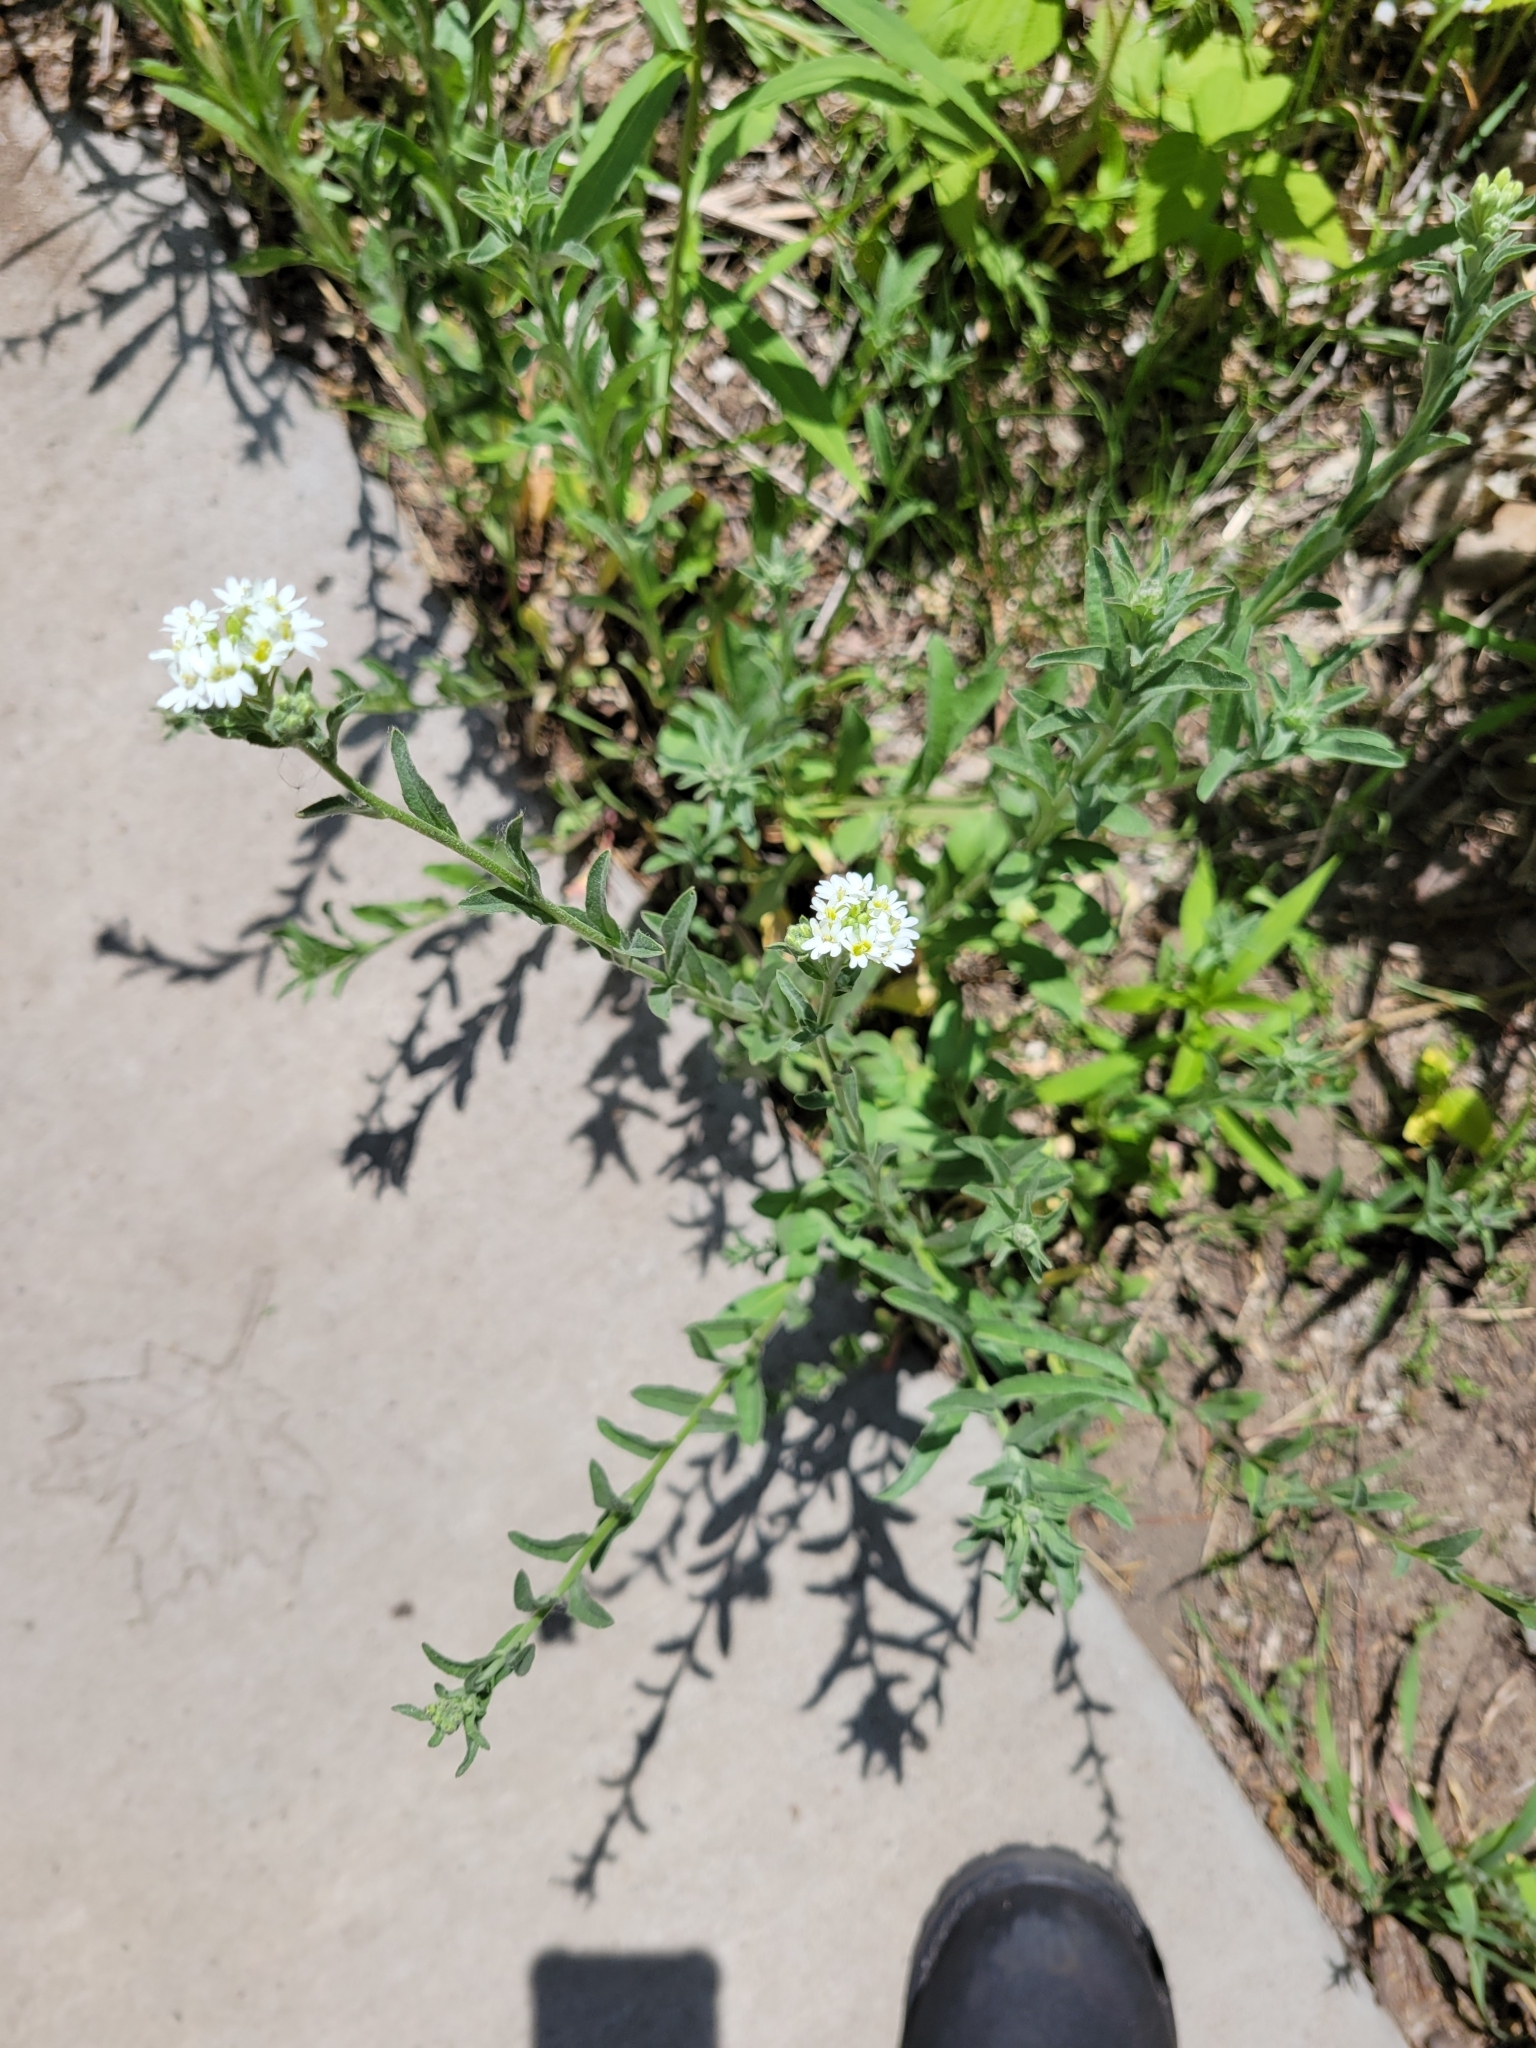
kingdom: Plantae
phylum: Tracheophyta
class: Magnoliopsida
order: Brassicales
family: Brassicaceae
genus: Berteroa
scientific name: Berteroa incana
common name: Hoary alison
